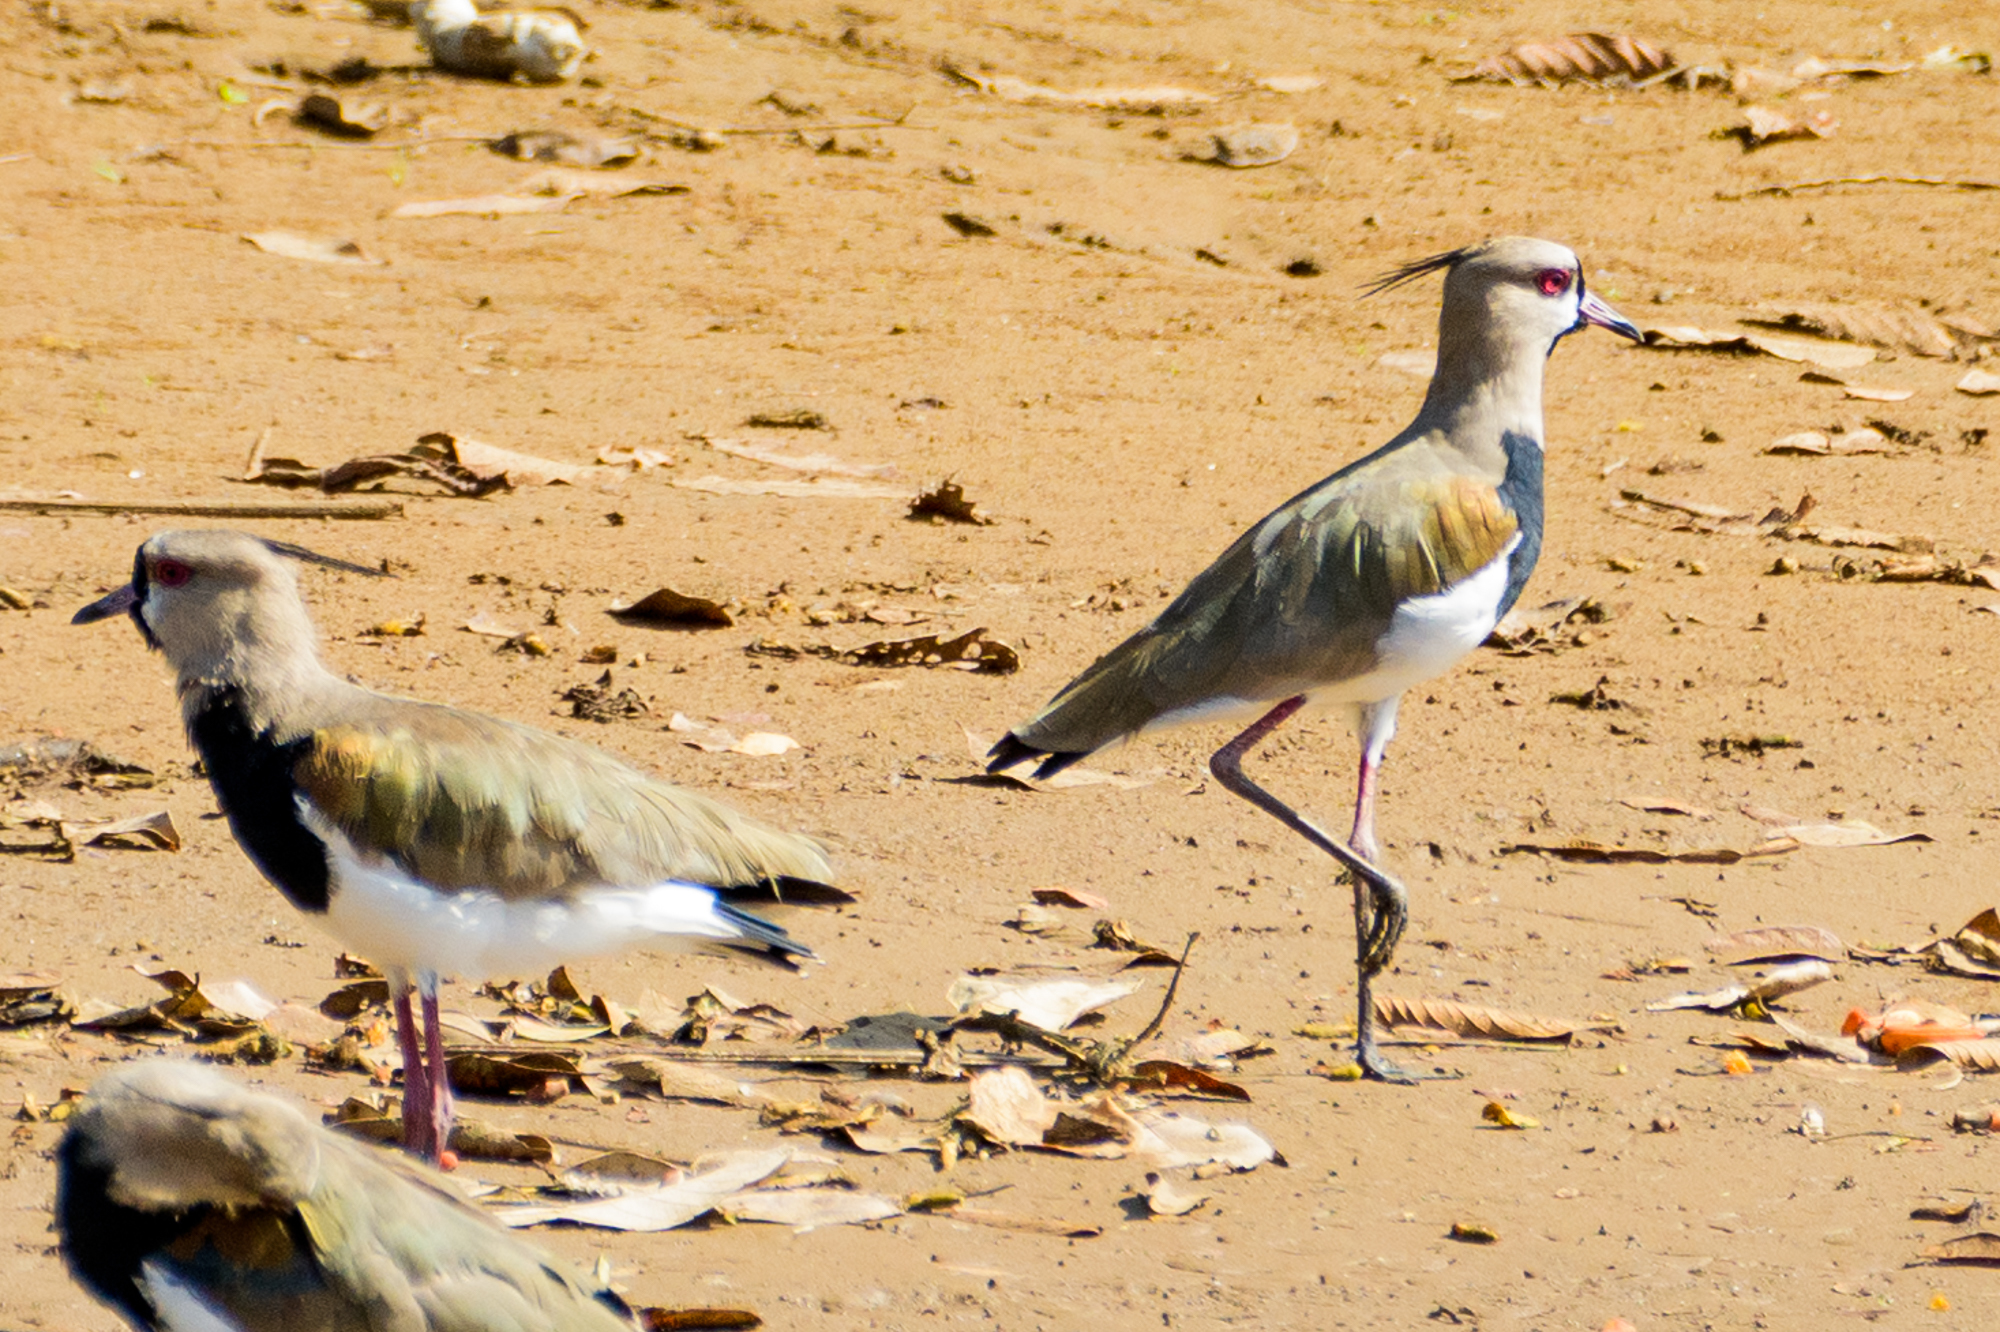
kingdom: Animalia
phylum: Chordata
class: Aves
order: Charadriiformes
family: Charadriidae
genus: Vanellus
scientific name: Vanellus chilensis
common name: Southern lapwing
